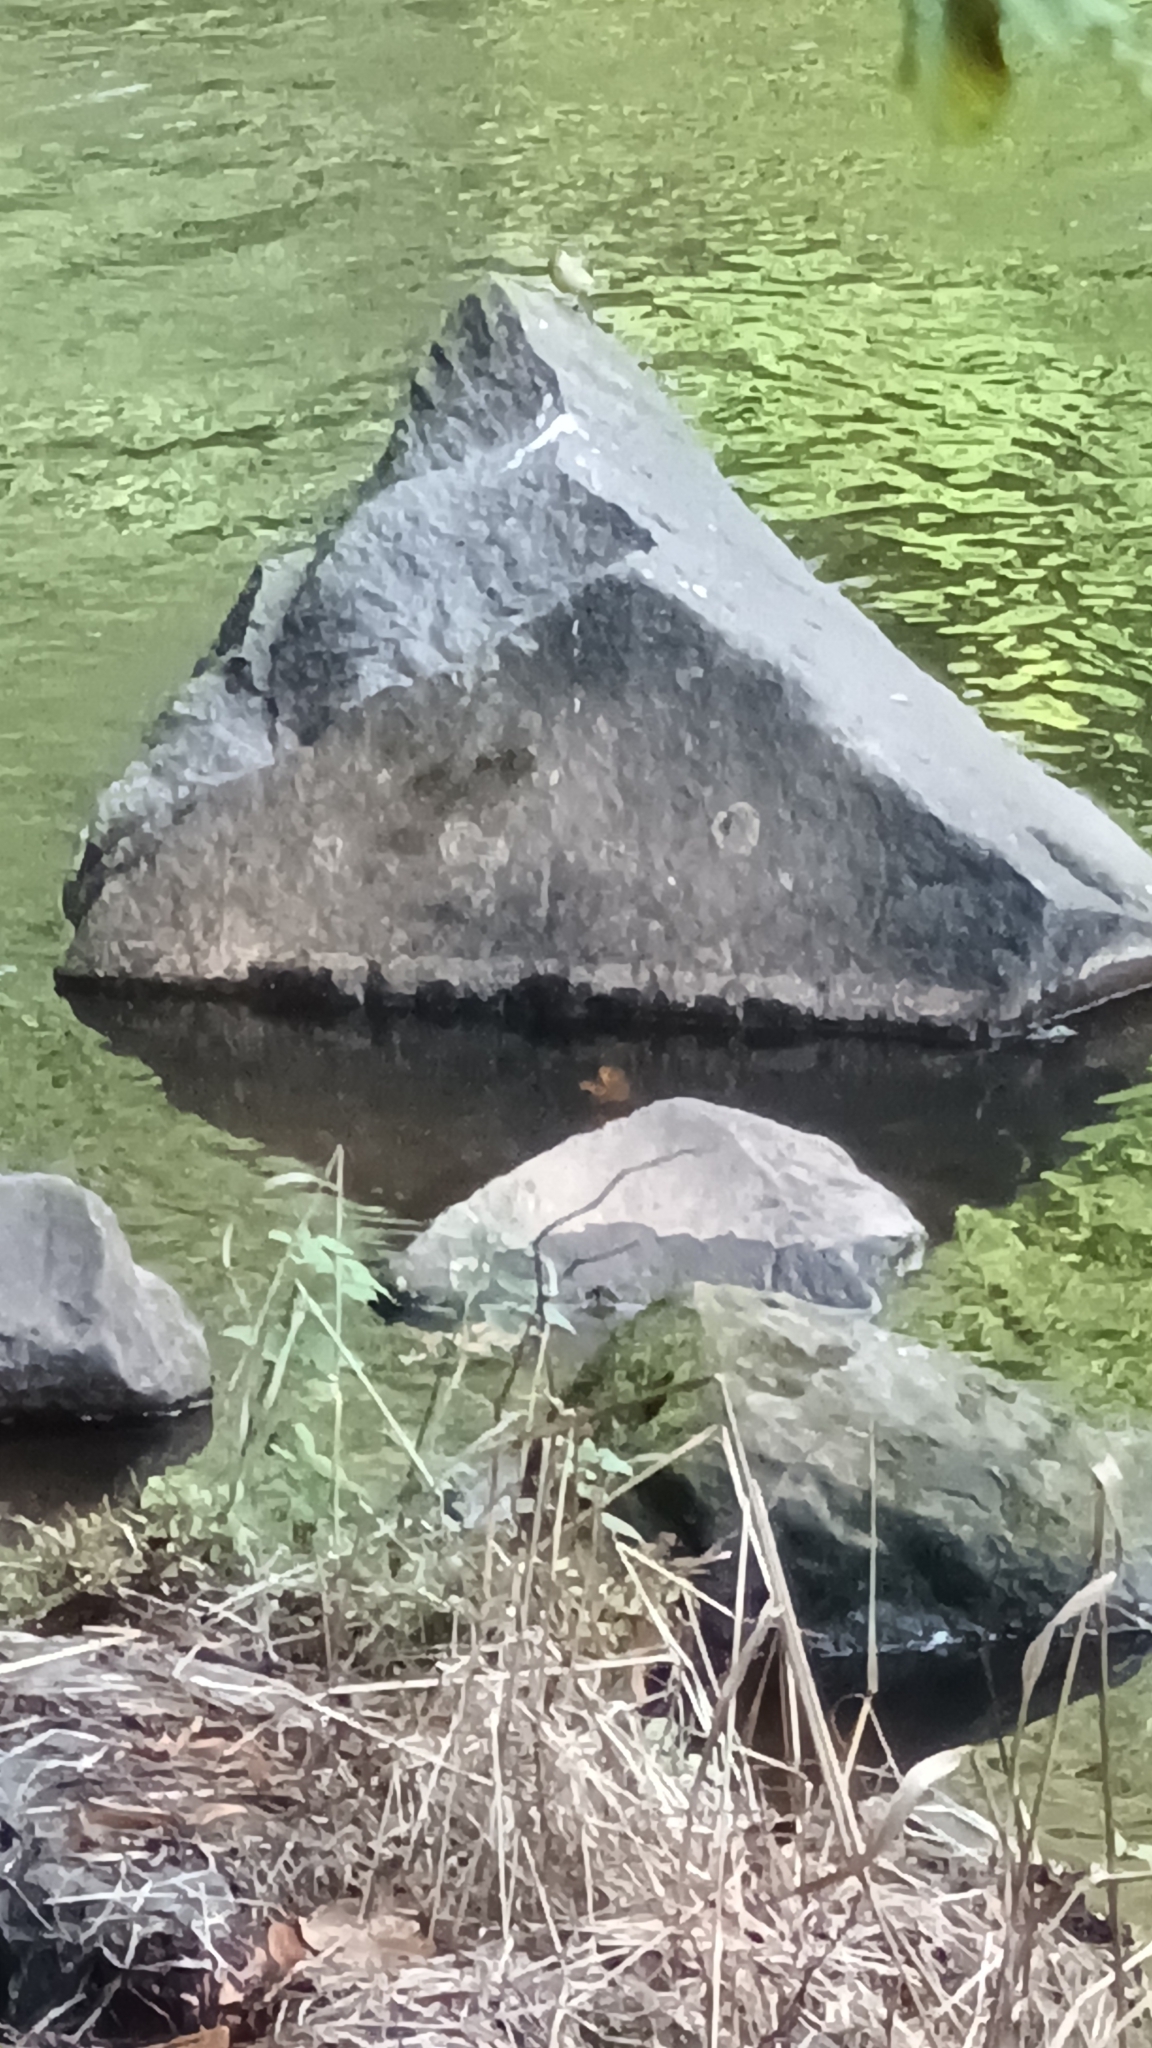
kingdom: Animalia
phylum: Chordata
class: Aves
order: Passeriformes
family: Motacillidae
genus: Motacilla
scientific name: Motacilla cinerea
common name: Grey wagtail
